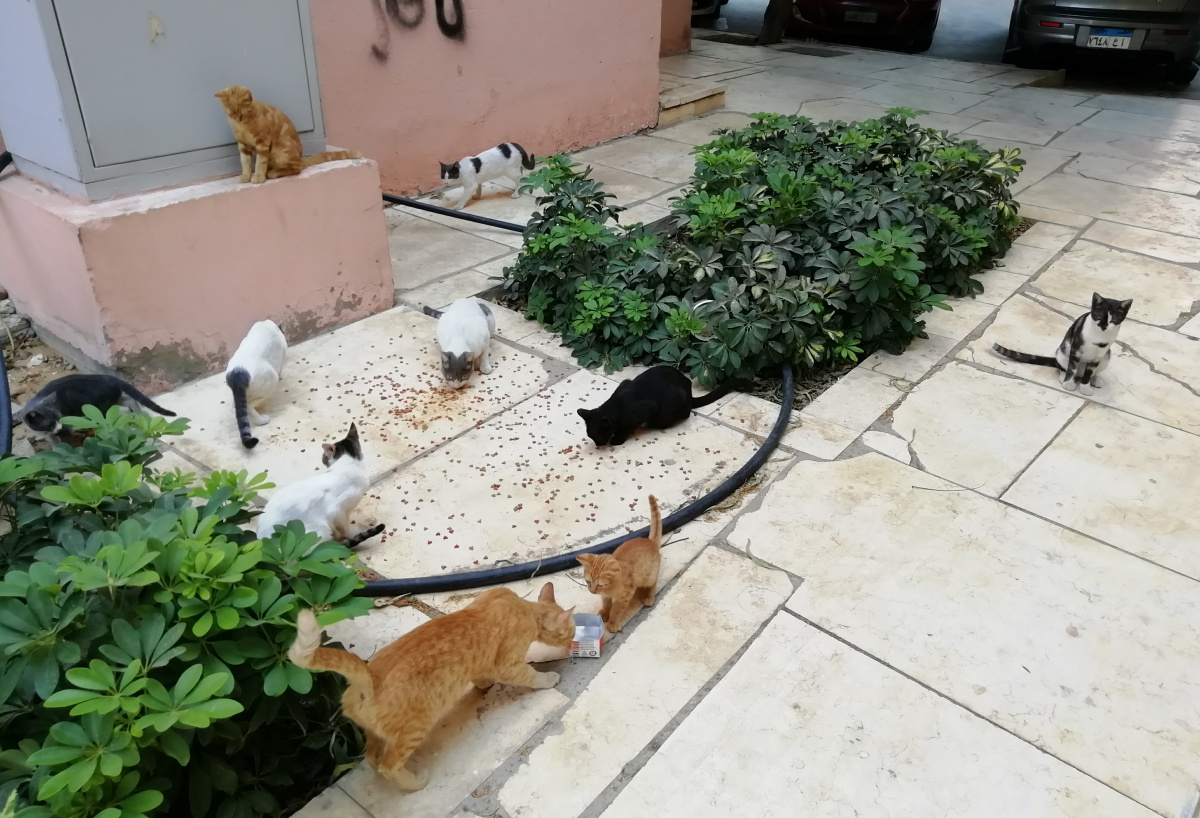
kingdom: Animalia
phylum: Chordata
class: Mammalia
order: Carnivora
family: Felidae
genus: Felis
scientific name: Felis catus
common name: Domestic cat
